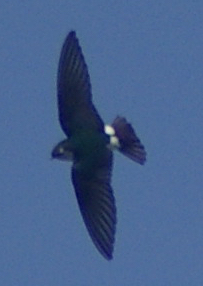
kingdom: Animalia
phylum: Chordata
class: Aves
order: Passeriformes
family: Hirundinidae
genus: Tachycineta
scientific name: Tachycineta thalassina
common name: Violet-green swallow
